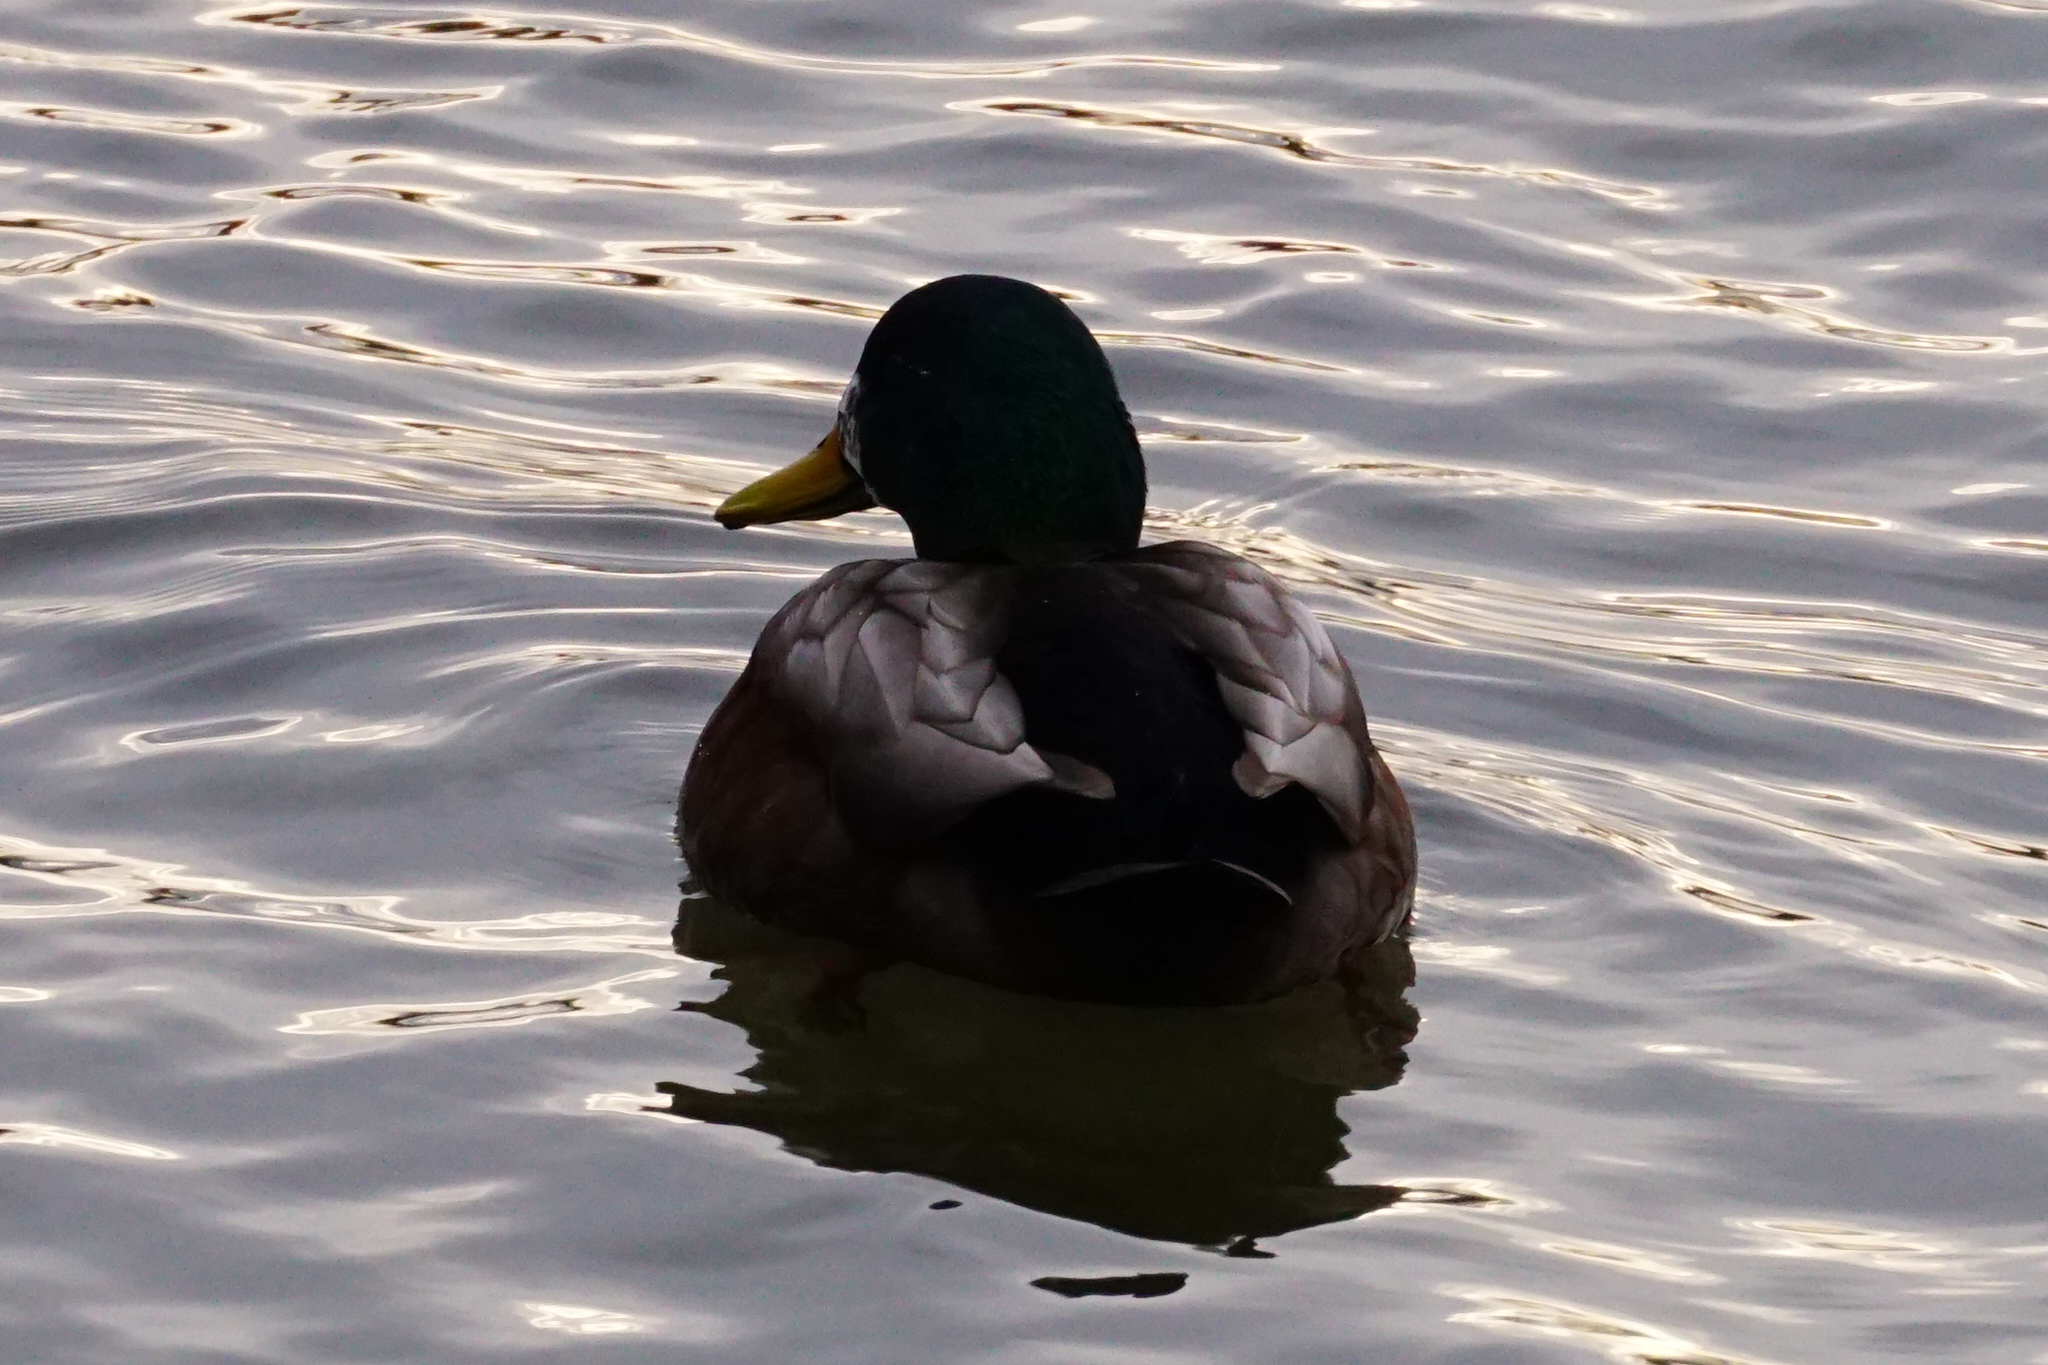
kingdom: Animalia
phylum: Chordata
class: Aves
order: Anseriformes
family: Anatidae
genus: Anas
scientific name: Anas platyrhynchos
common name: Mallard
